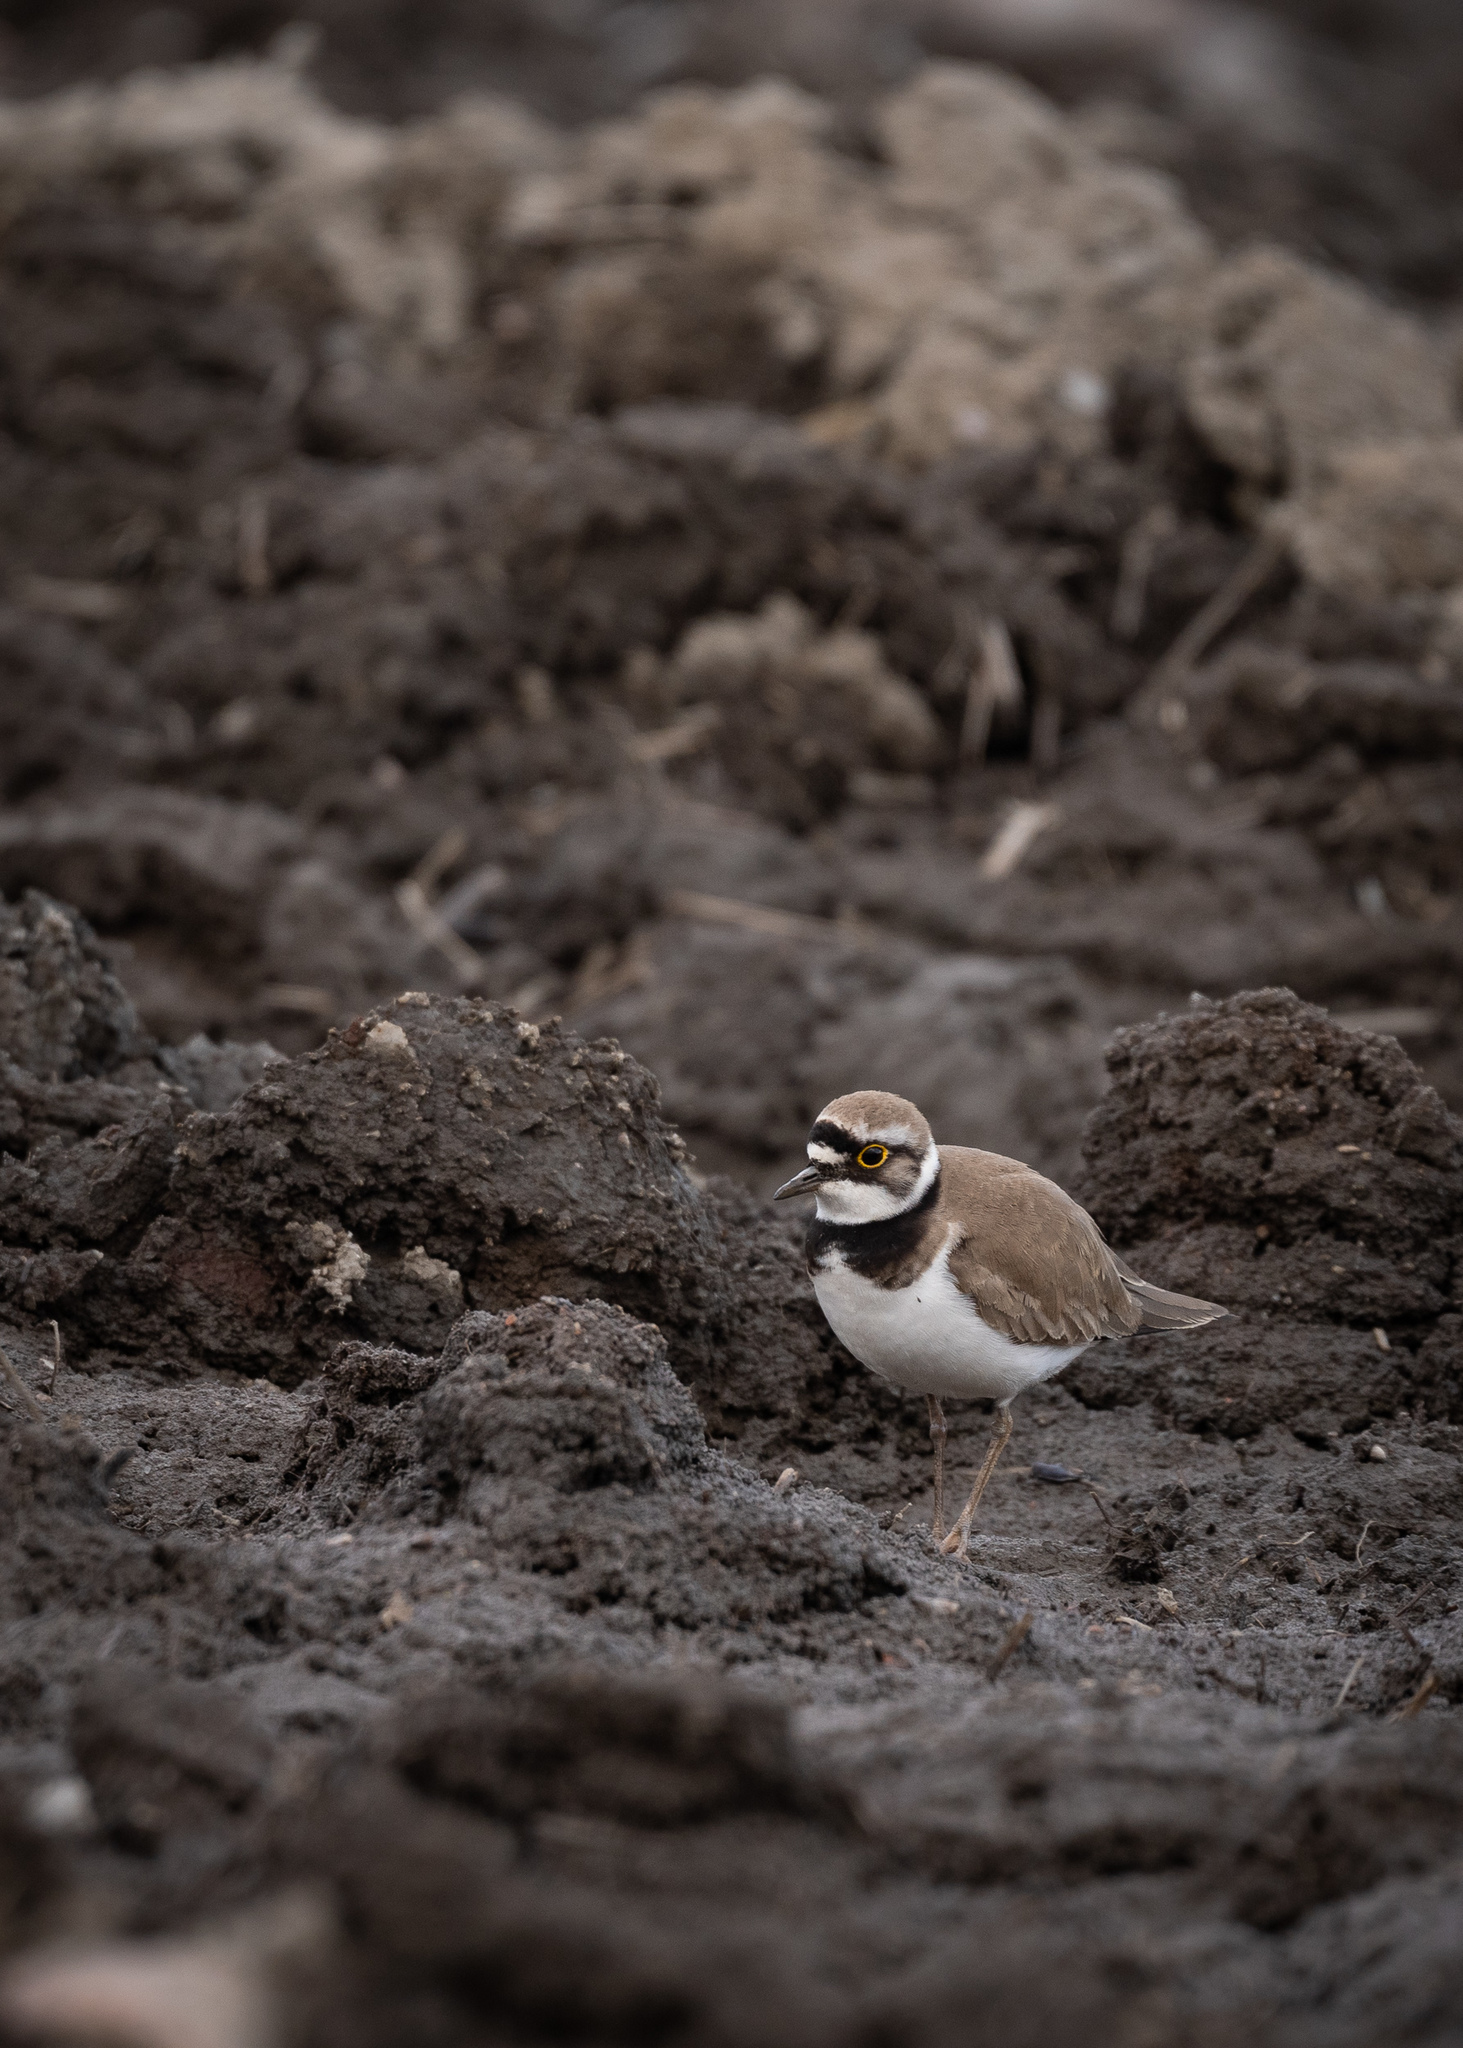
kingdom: Animalia
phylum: Chordata
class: Aves
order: Charadriiformes
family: Charadriidae
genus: Charadrius
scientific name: Charadrius dubius
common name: Little ringed plover
